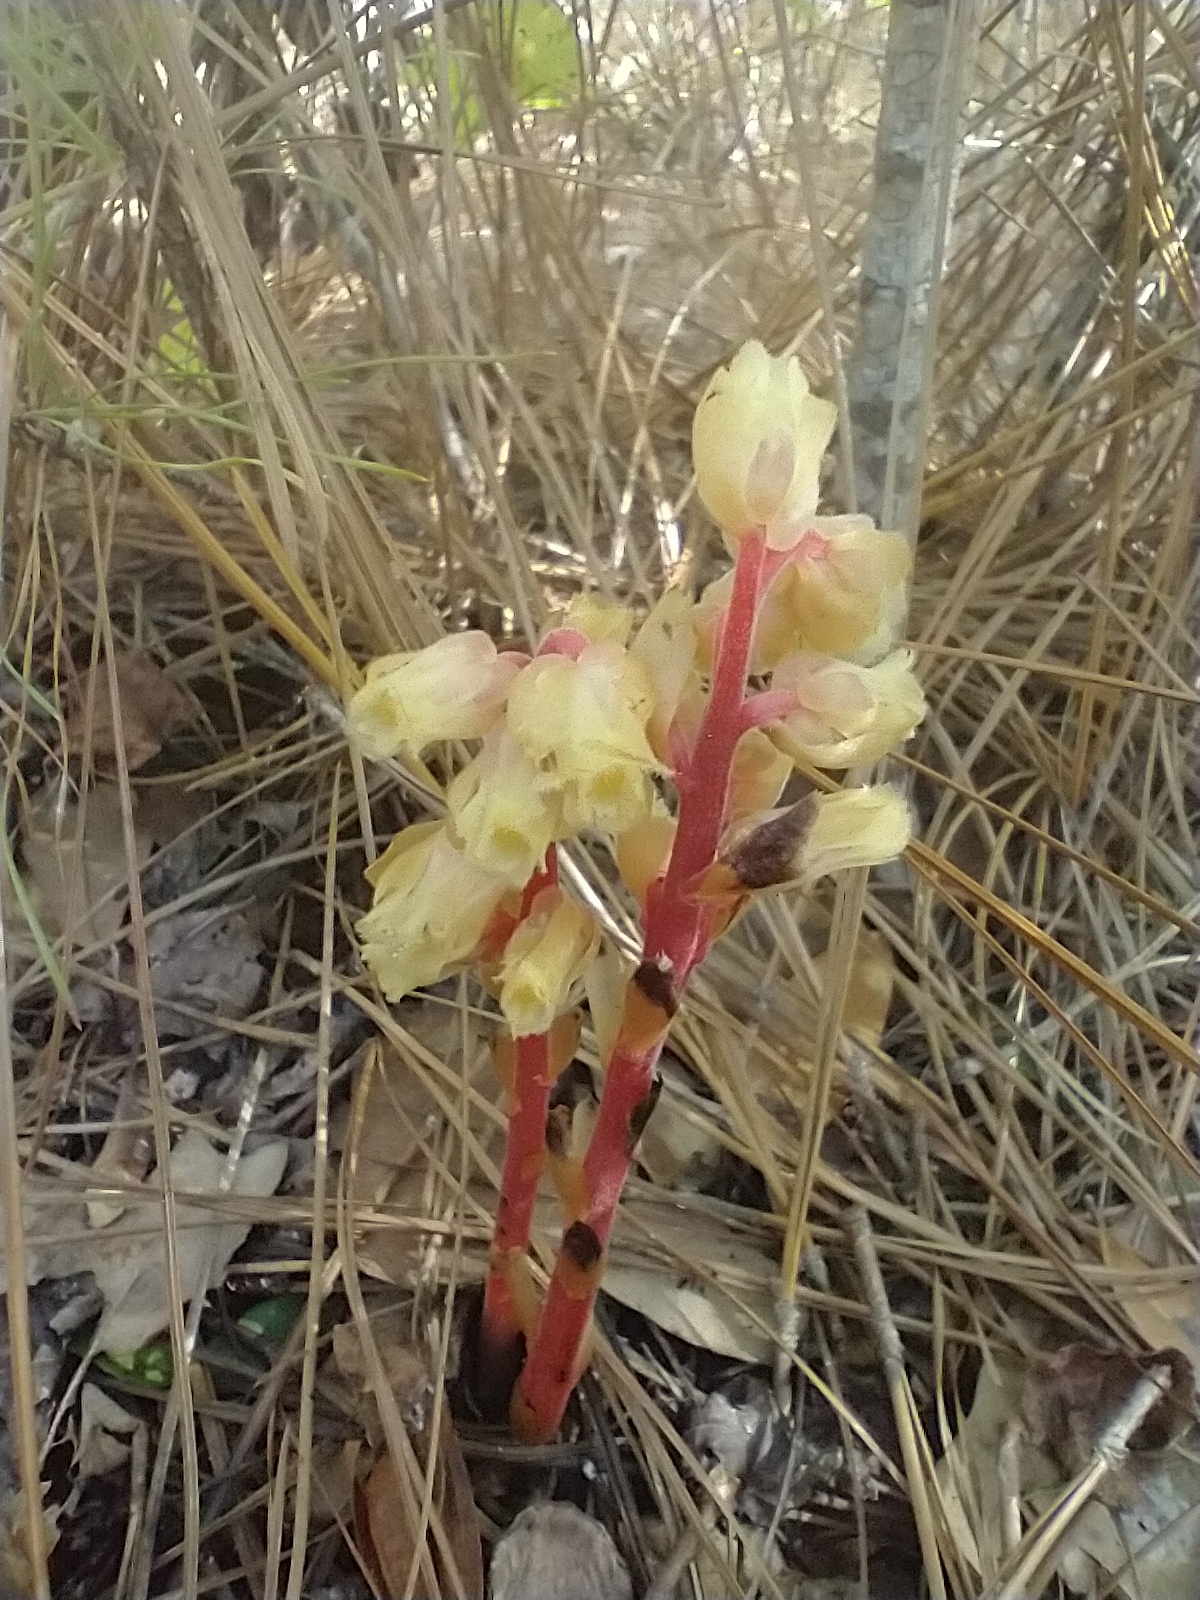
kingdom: Plantae
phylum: Tracheophyta
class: Magnoliopsida
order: Ericales
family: Ericaceae
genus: Hypopitys
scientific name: Hypopitys monotropa
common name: Yellow bird's-nest
